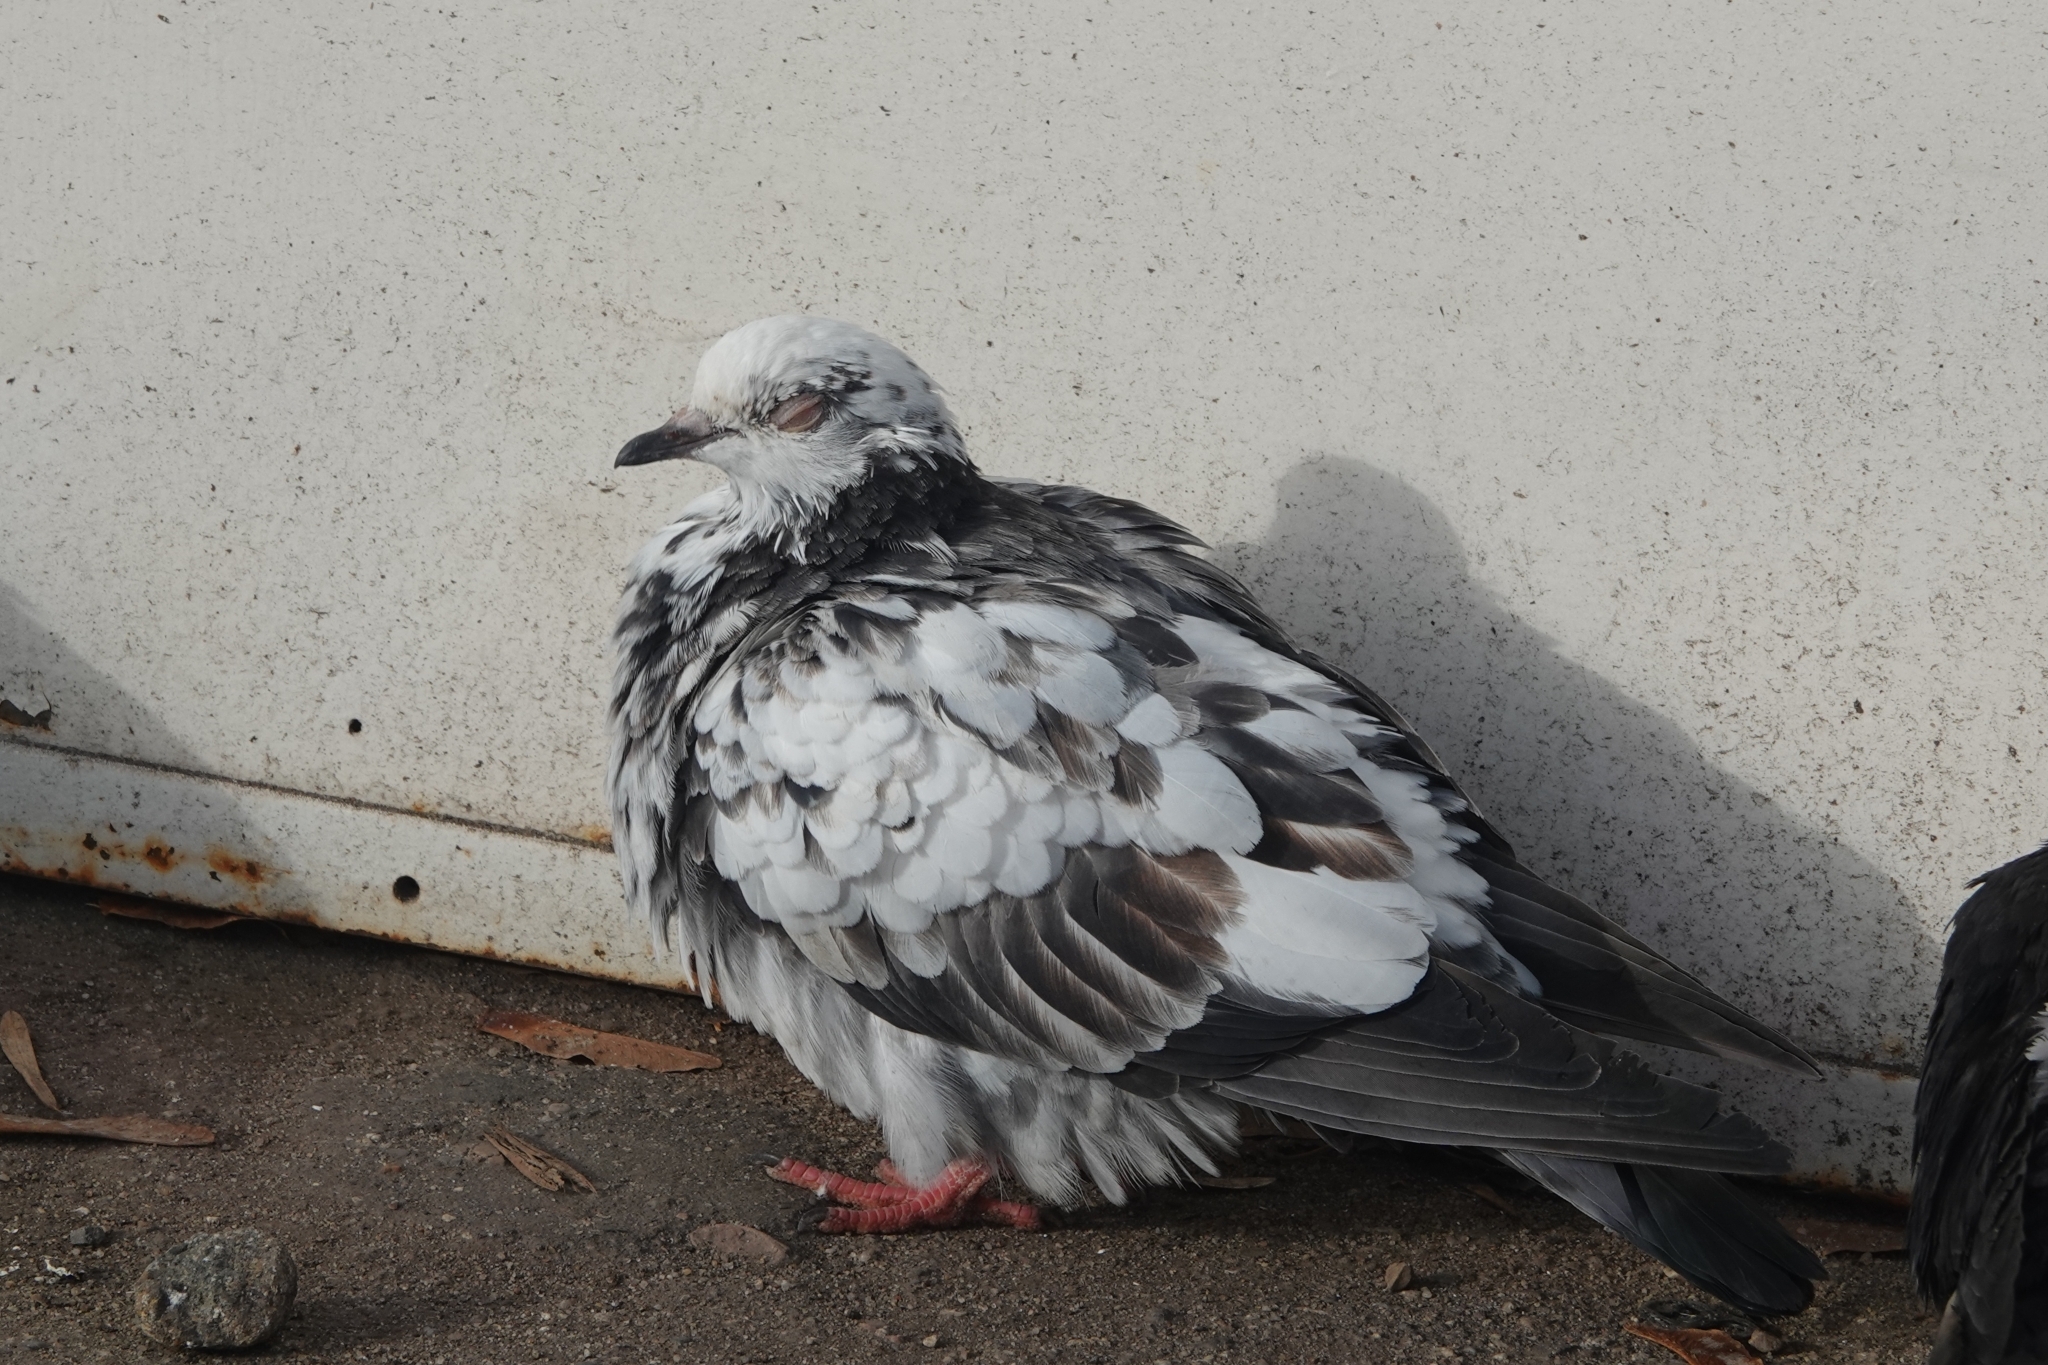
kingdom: Animalia
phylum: Chordata
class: Aves
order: Columbiformes
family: Columbidae
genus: Columba
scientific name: Columba livia
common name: Rock pigeon
